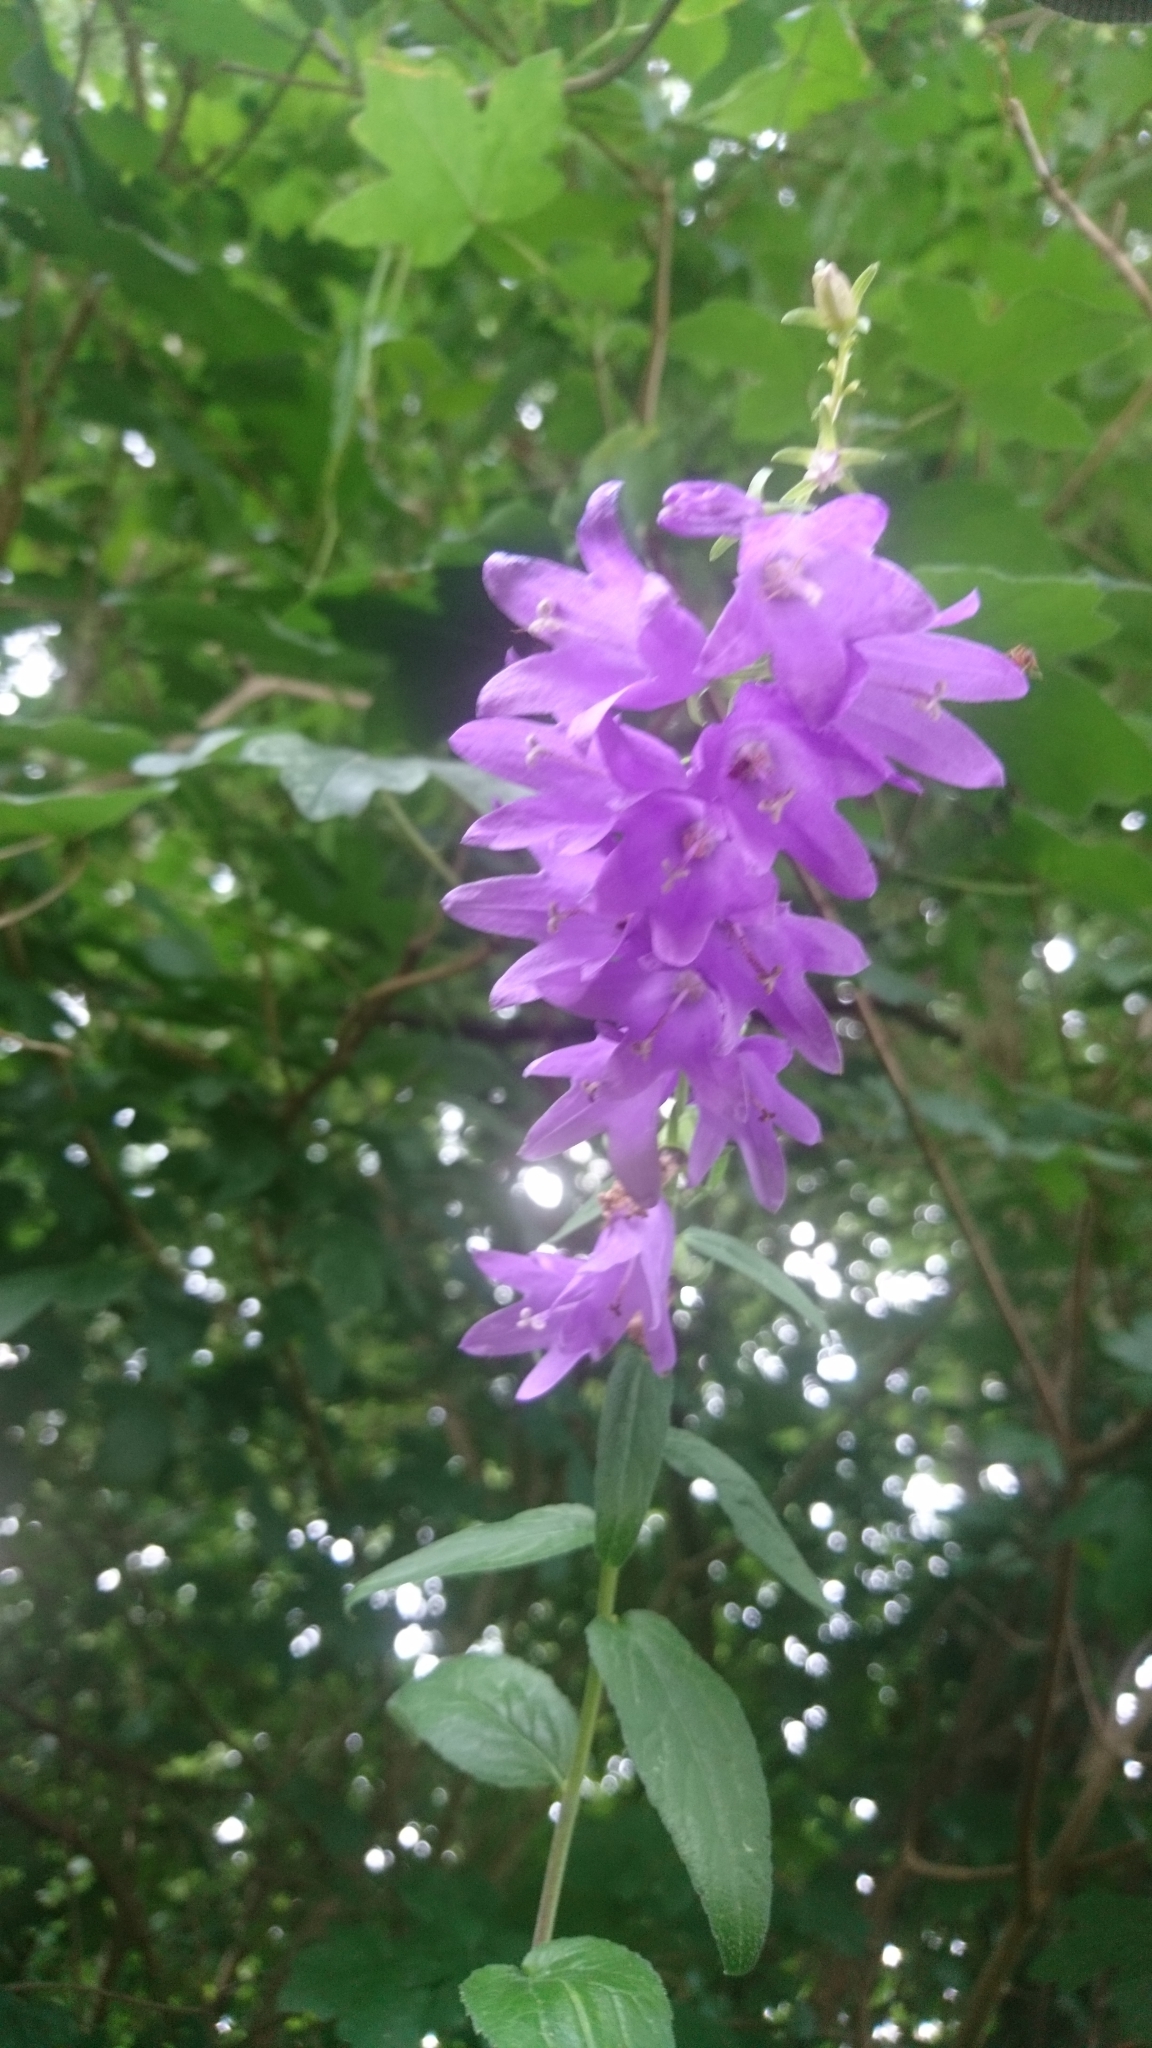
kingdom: Plantae
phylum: Tracheophyta
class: Magnoliopsida
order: Asterales
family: Campanulaceae
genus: Campanula
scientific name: Campanula rapunculoides
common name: Creeping bellflower
